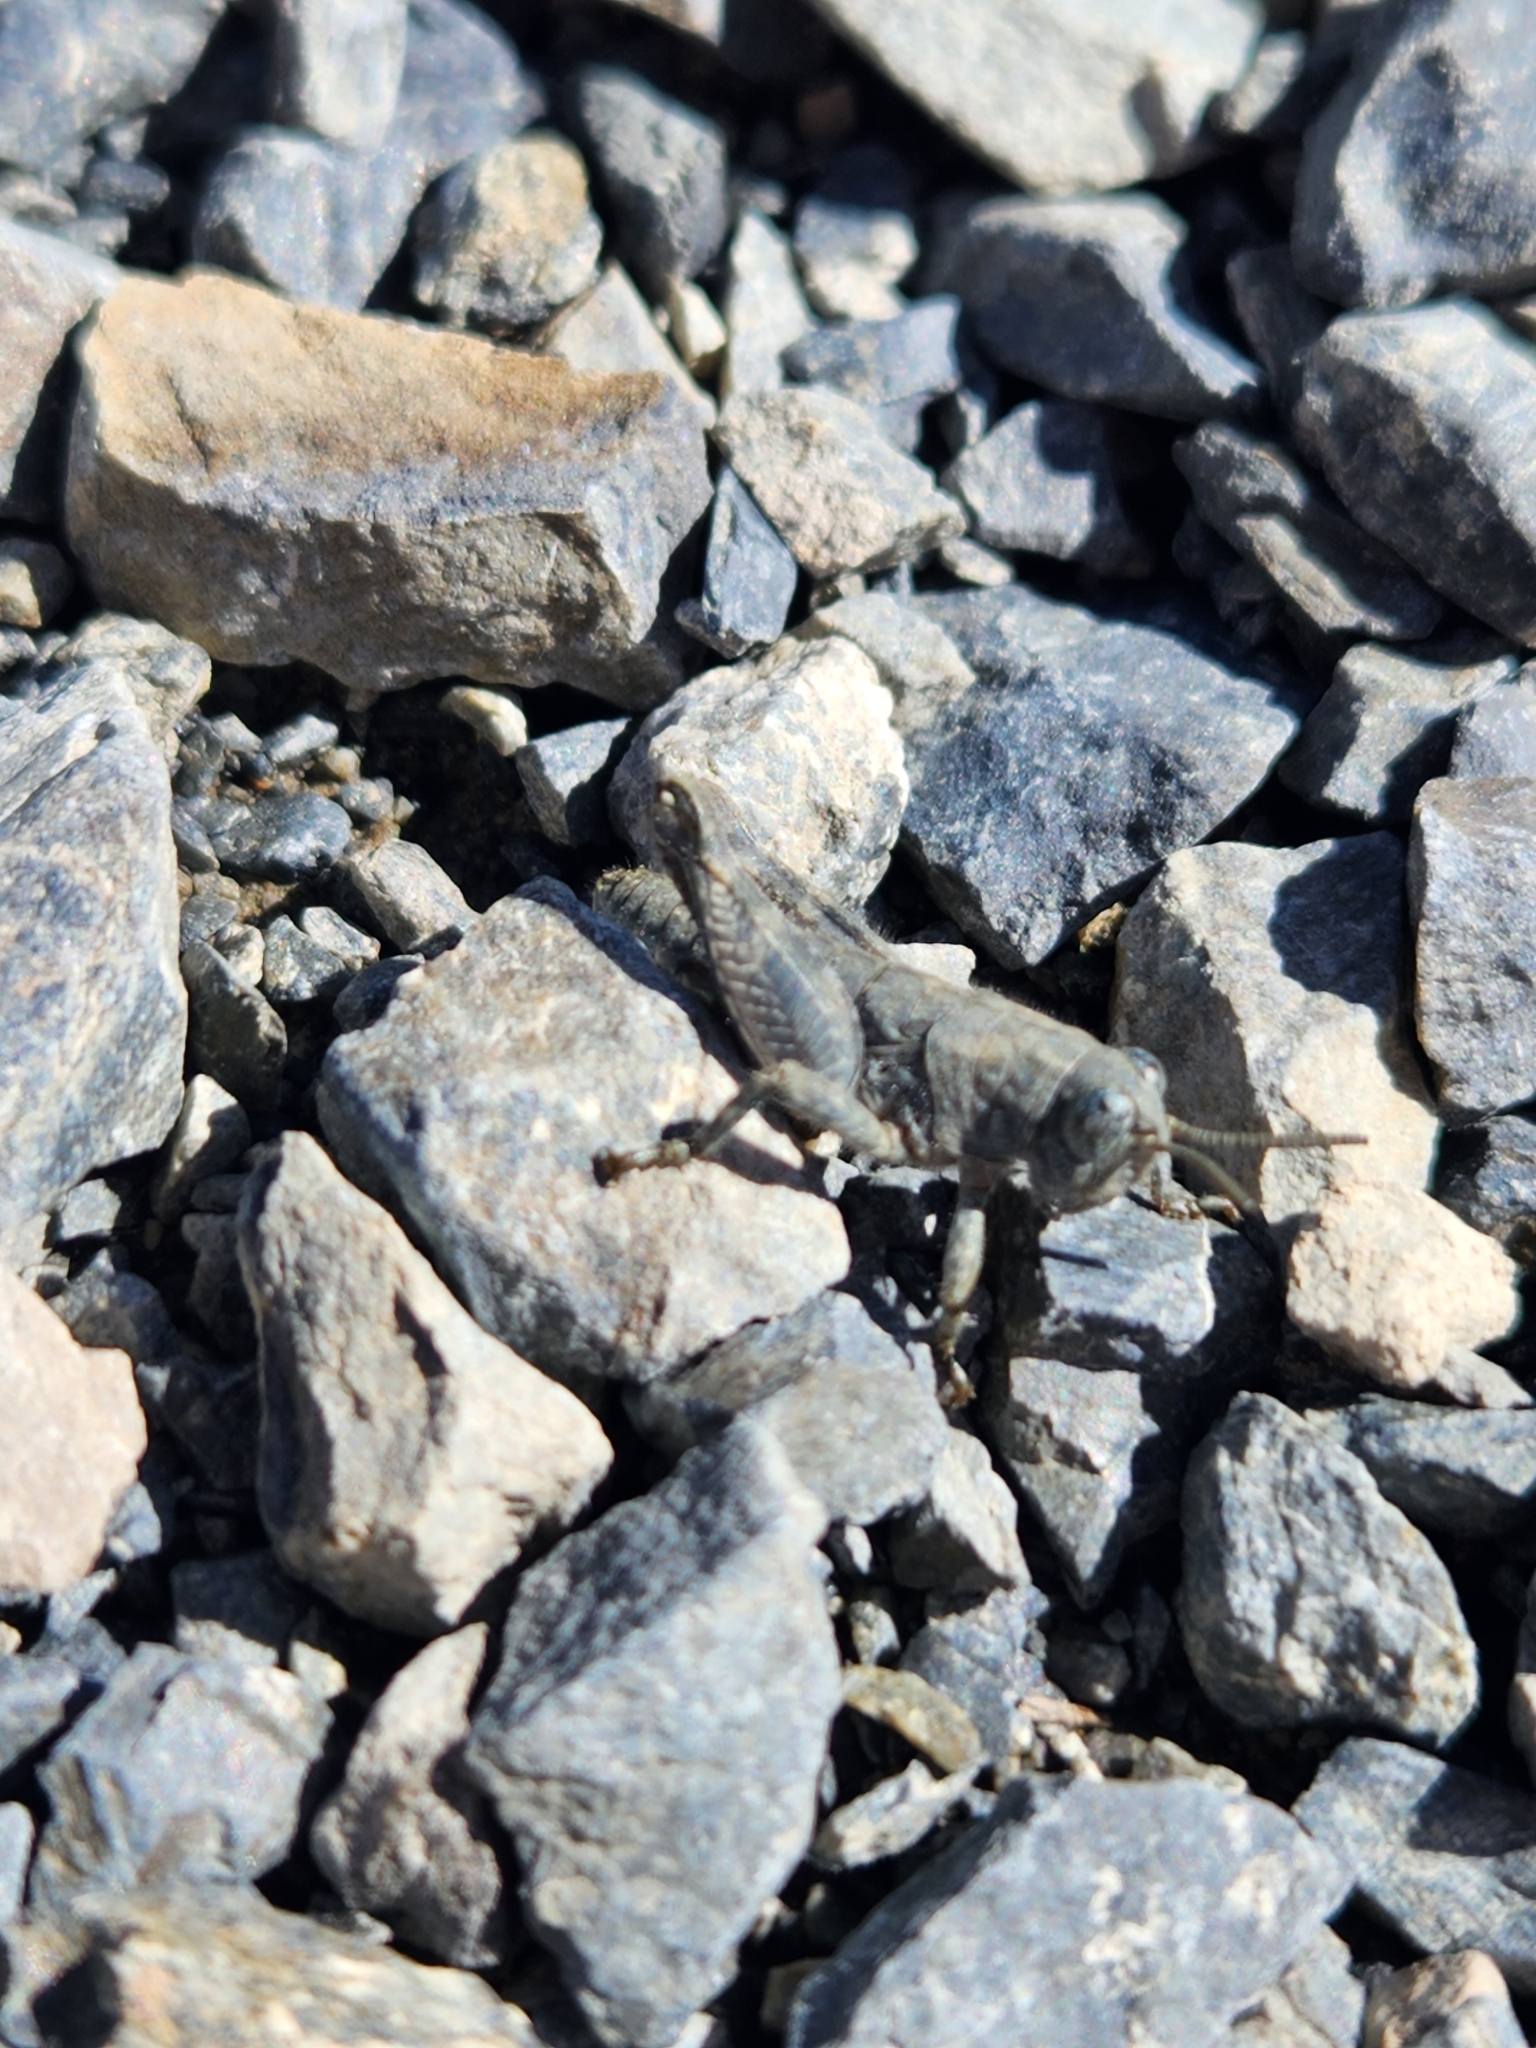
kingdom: Animalia
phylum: Arthropoda
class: Insecta
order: Orthoptera
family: Acrididae
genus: Sigaus
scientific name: Sigaus
